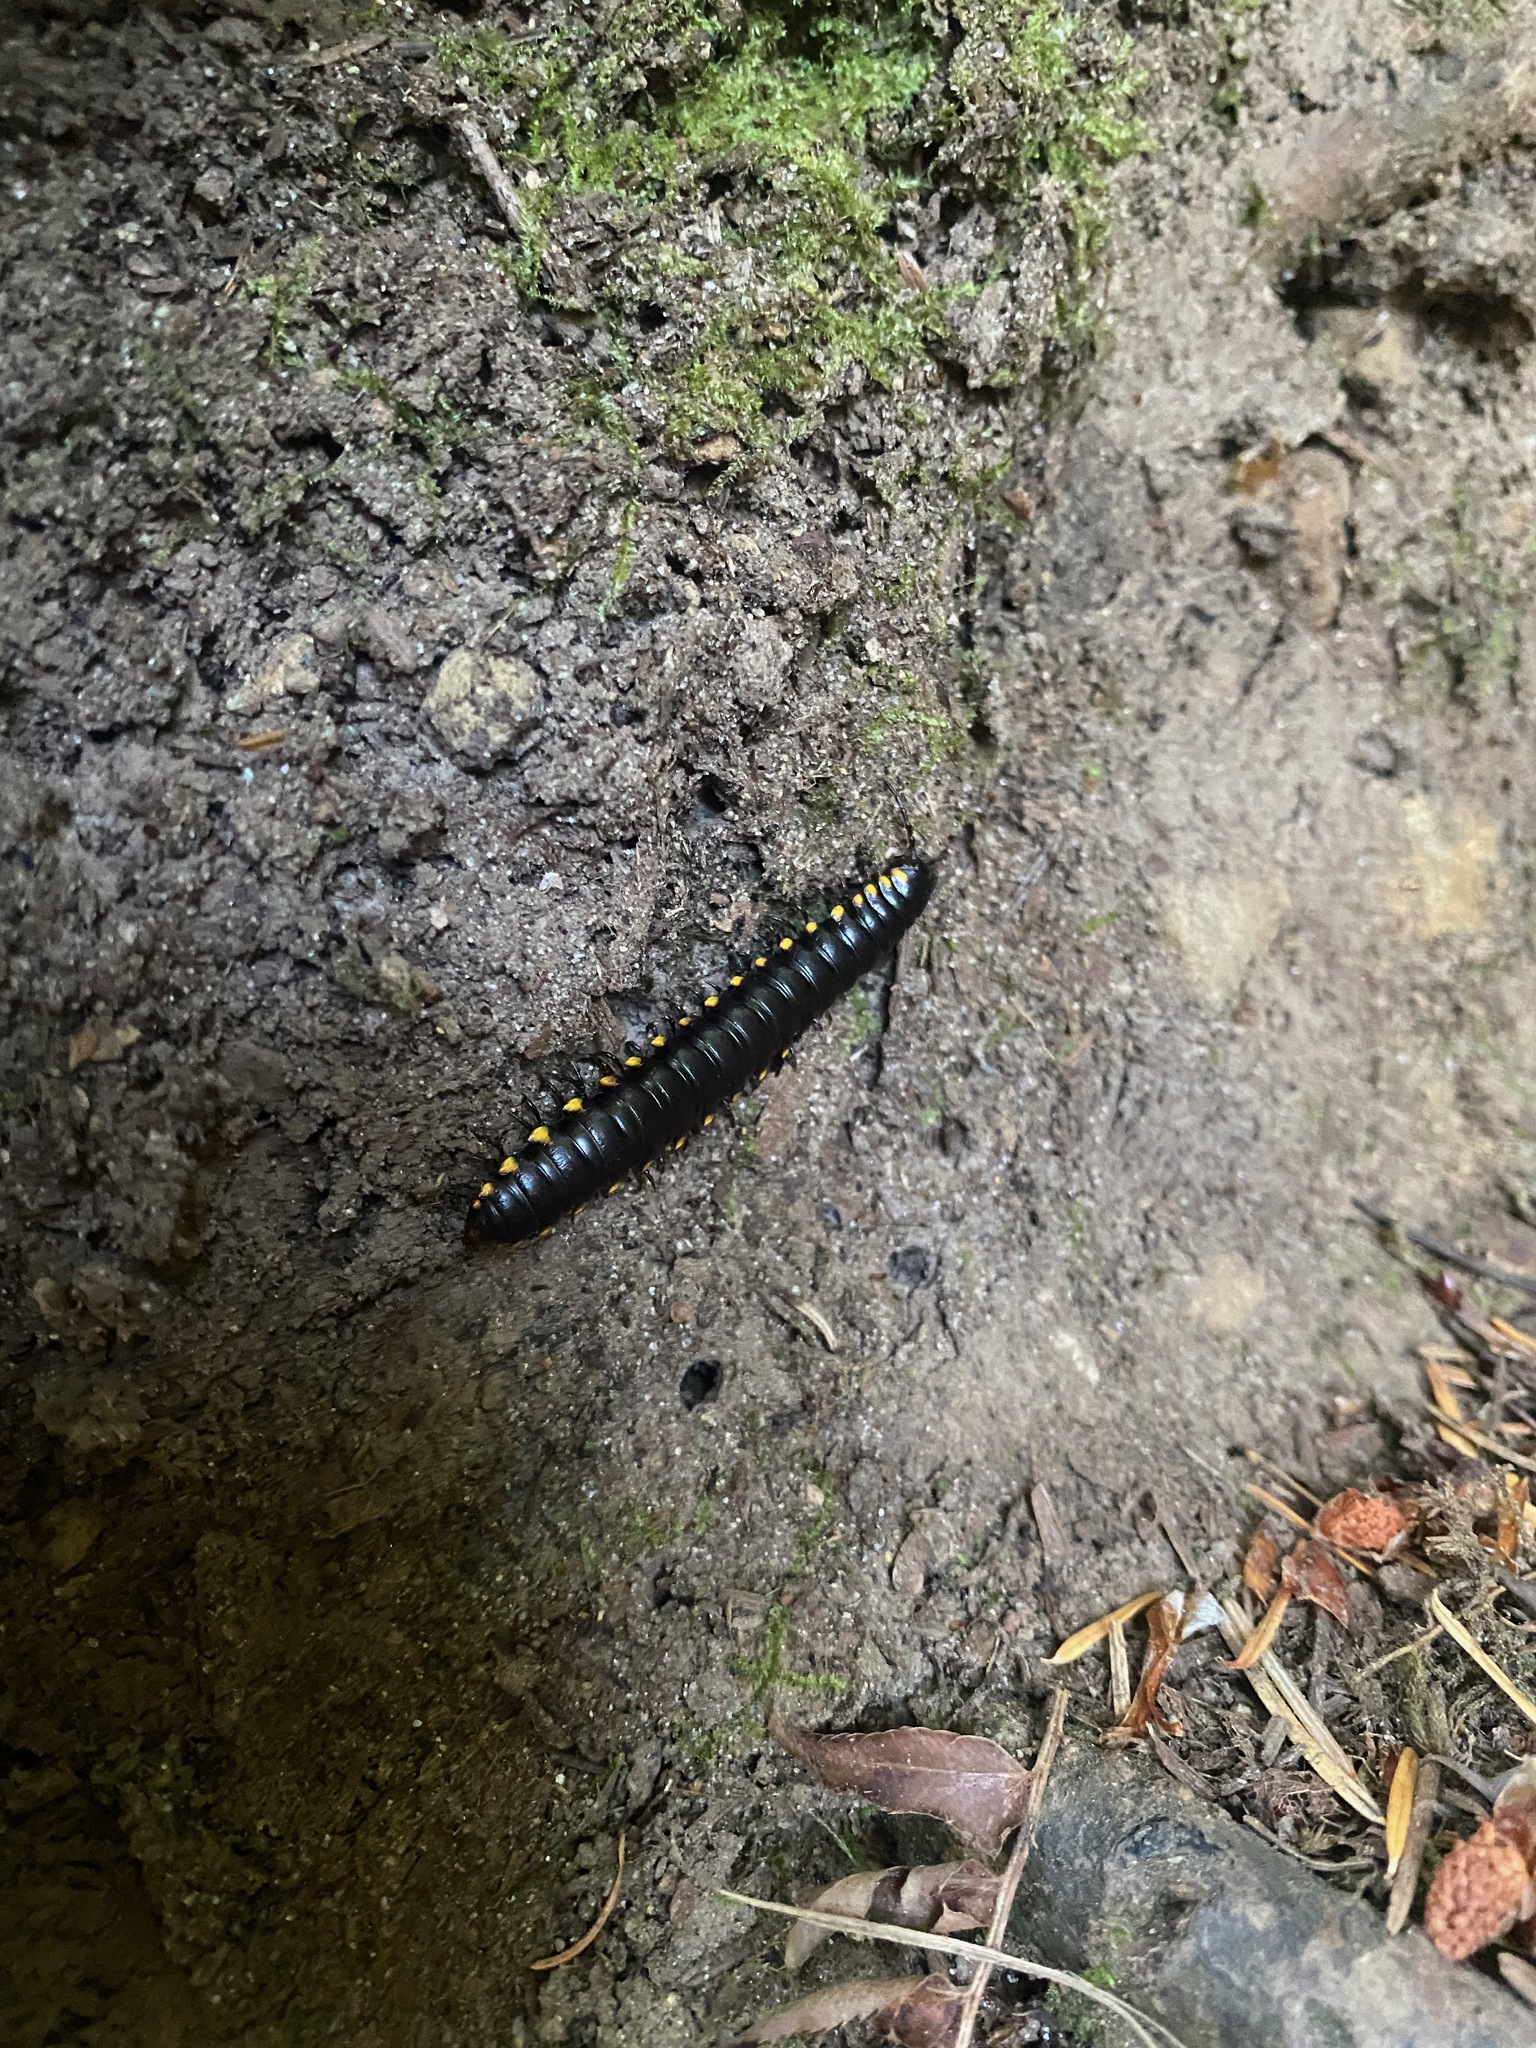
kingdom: Animalia
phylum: Arthropoda
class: Diplopoda
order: Polydesmida
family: Xystodesmidae
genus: Harpaphe
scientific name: Harpaphe haydeniana
